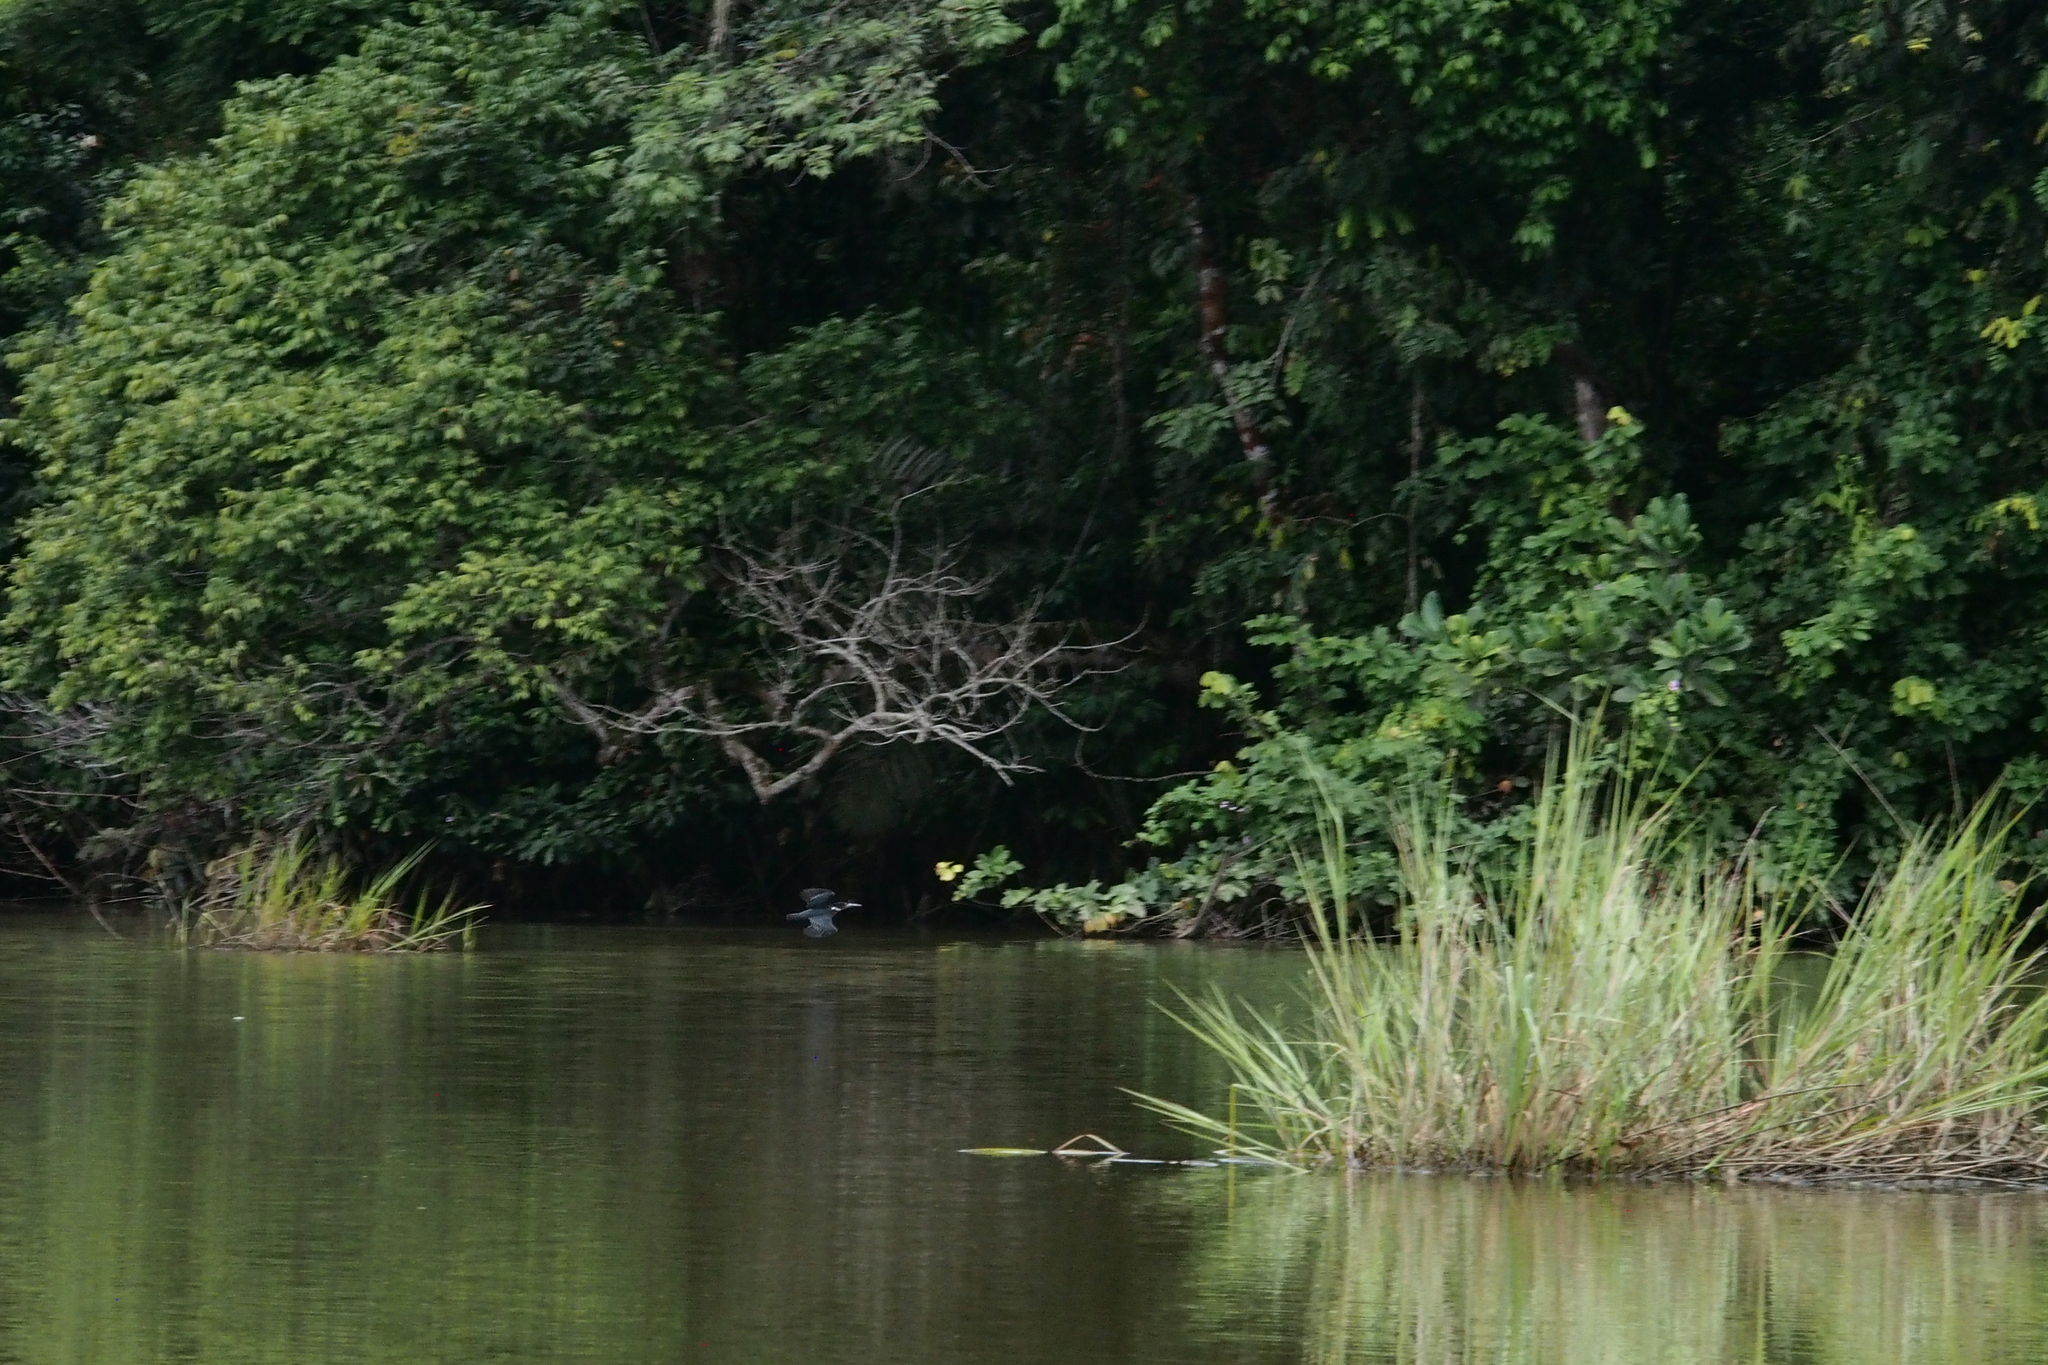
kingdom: Animalia
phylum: Chordata
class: Aves
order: Coraciiformes
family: Alcedinidae
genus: Megaceryle
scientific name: Megaceryle maxima
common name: Giant kingfisher
